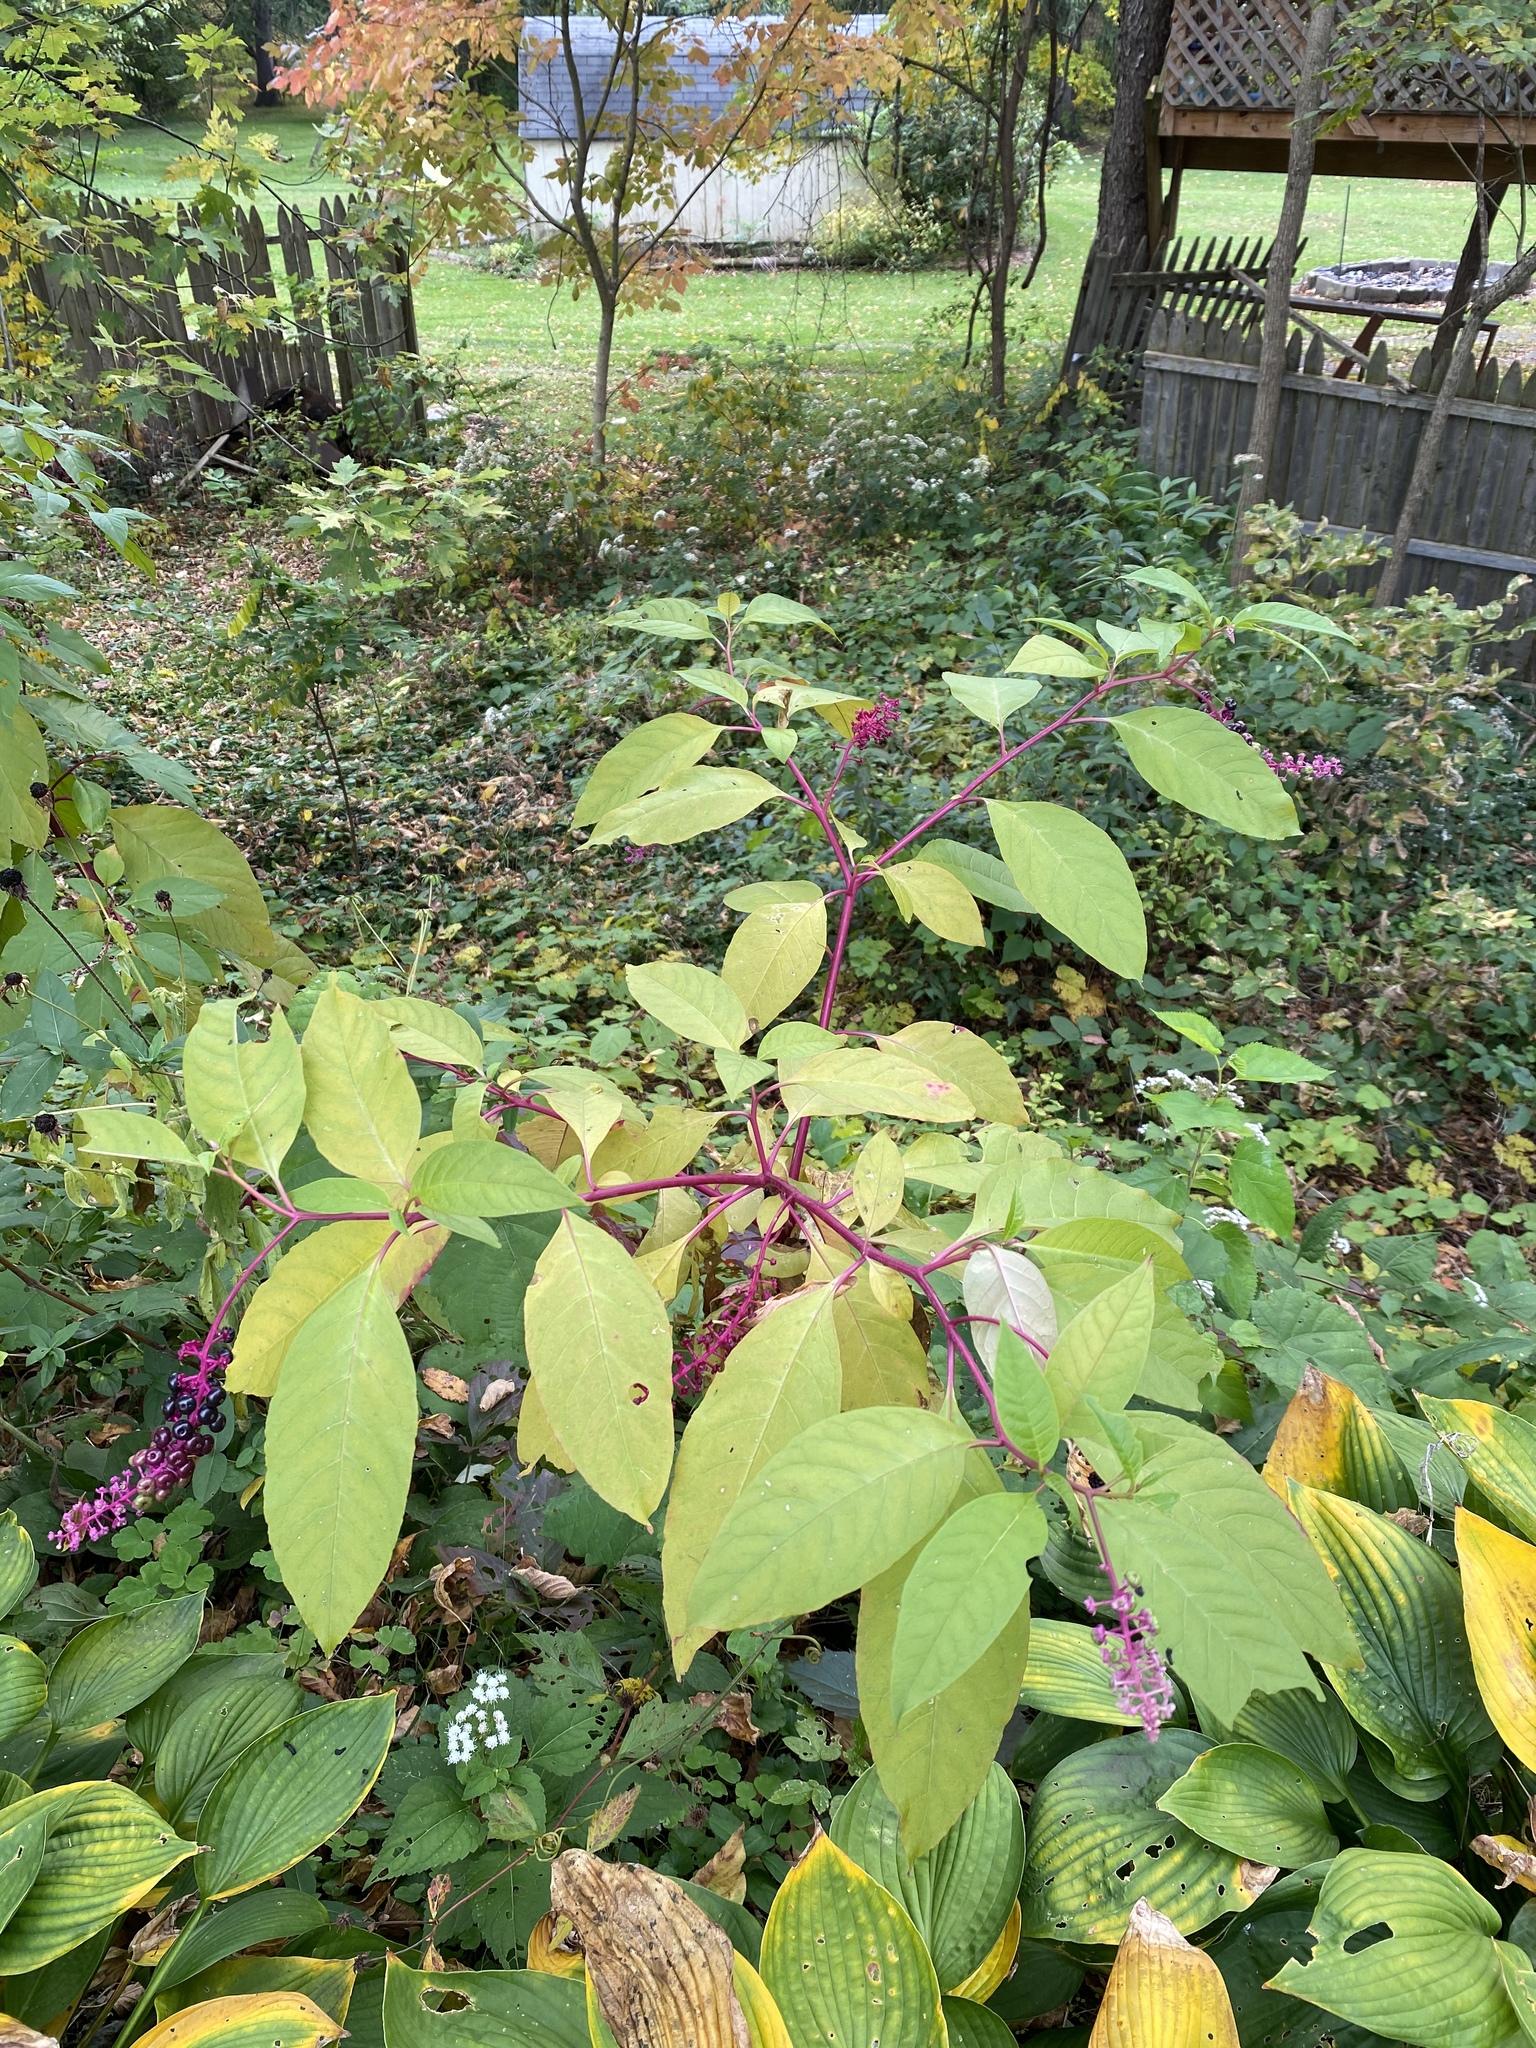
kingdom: Plantae
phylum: Tracheophyta
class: Magnoliopsida
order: Caryophyllales
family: Phytolaccaceae
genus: Phytolacca
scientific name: Phytolacca americana
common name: American pokeweed
